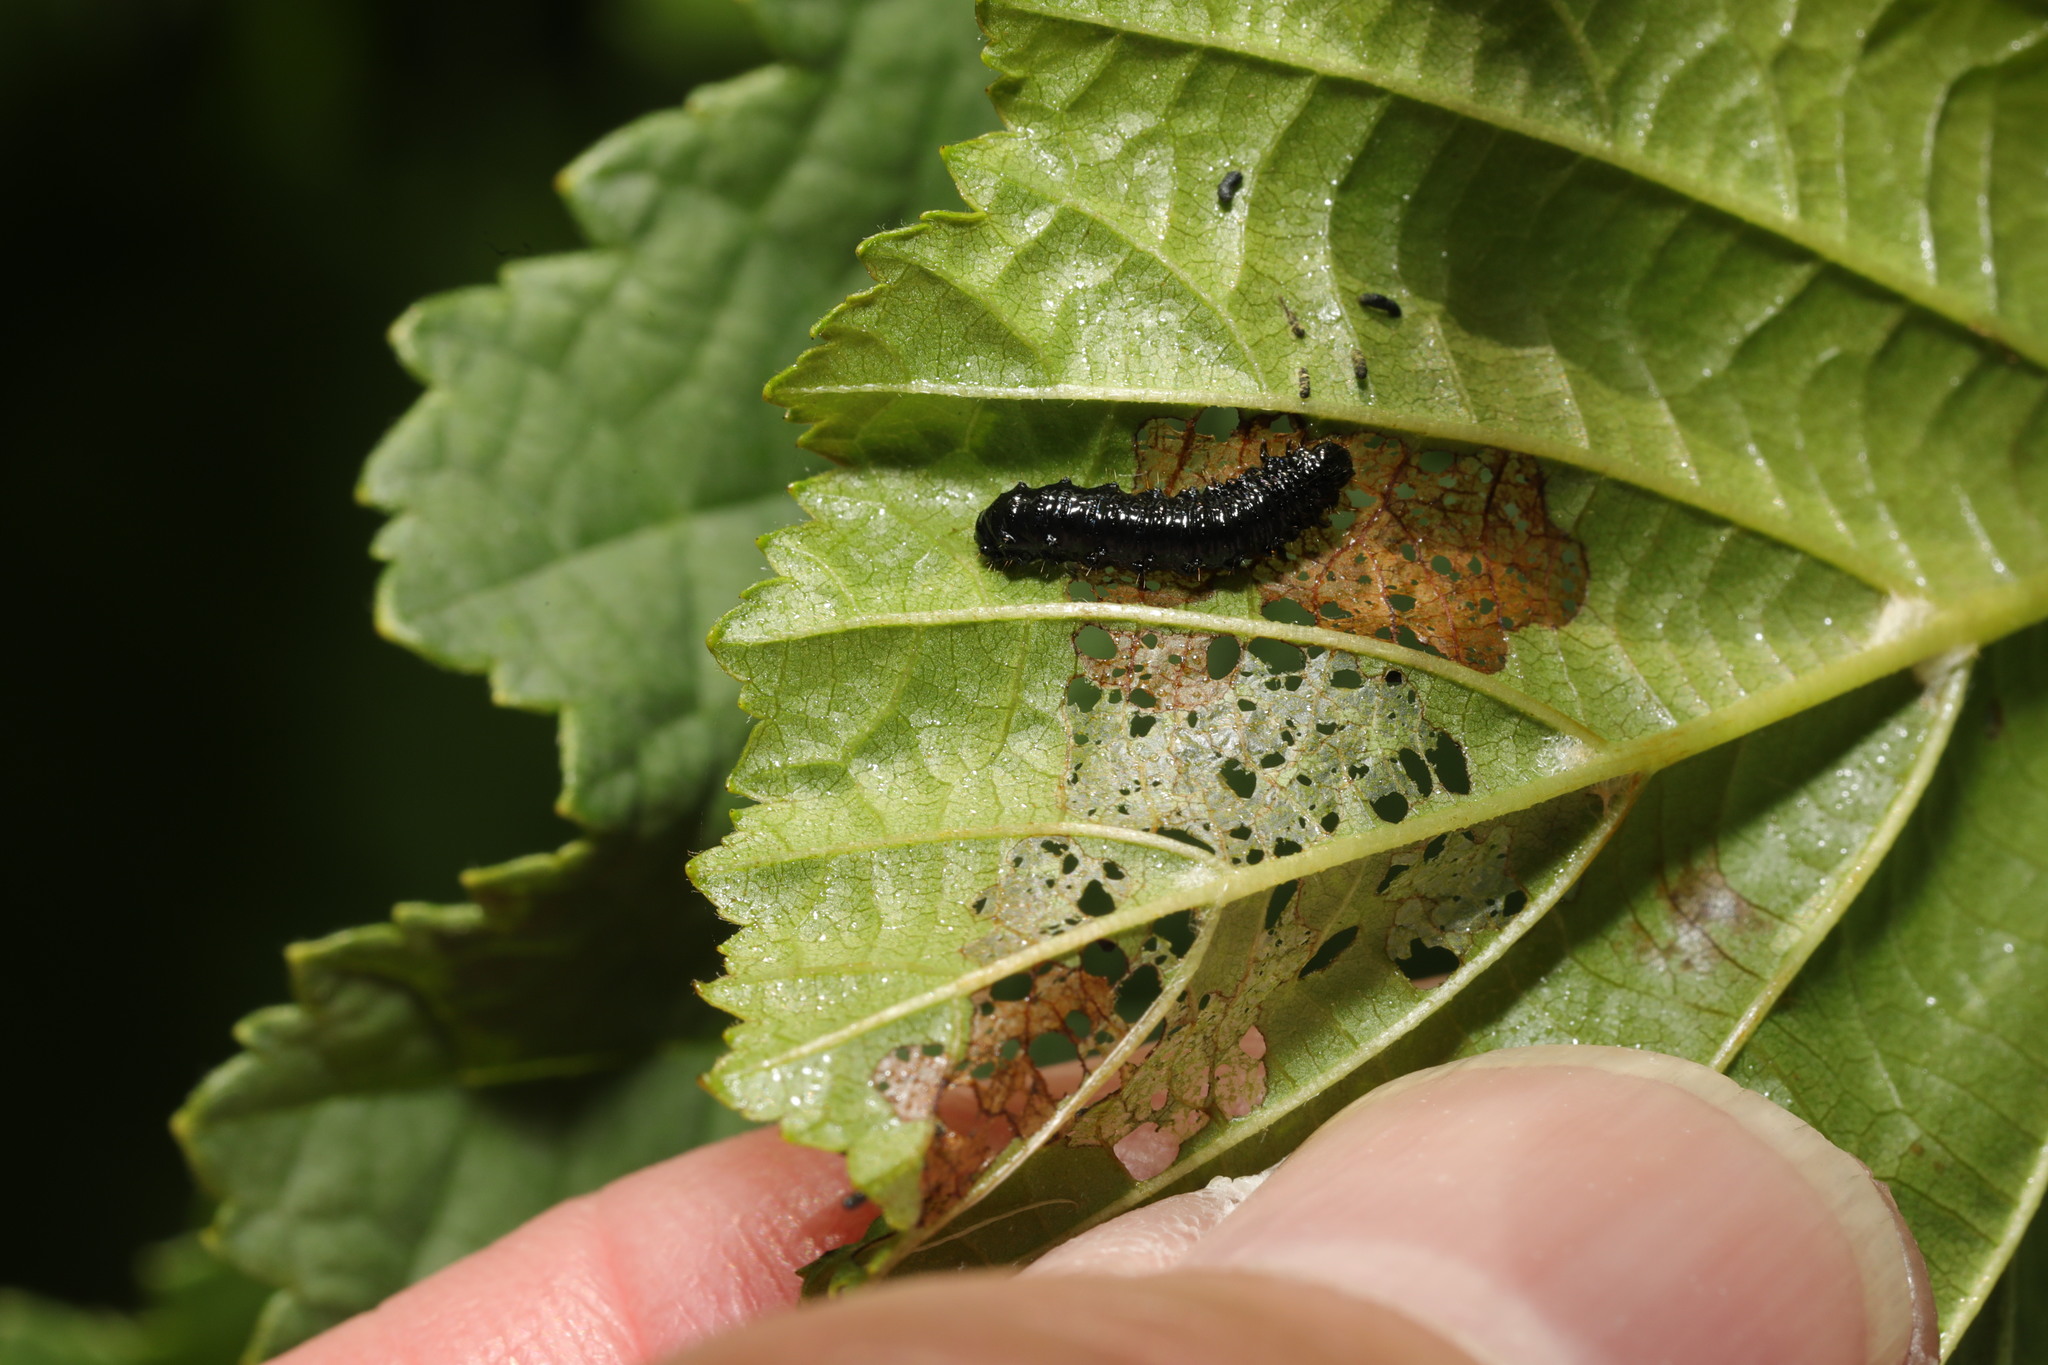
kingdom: Animalia
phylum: Arthropoda
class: Insecta
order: Coleoptera
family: Chrysomelidae
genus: Agelastica
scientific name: Agelastica alni
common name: Alder leaf beetle
